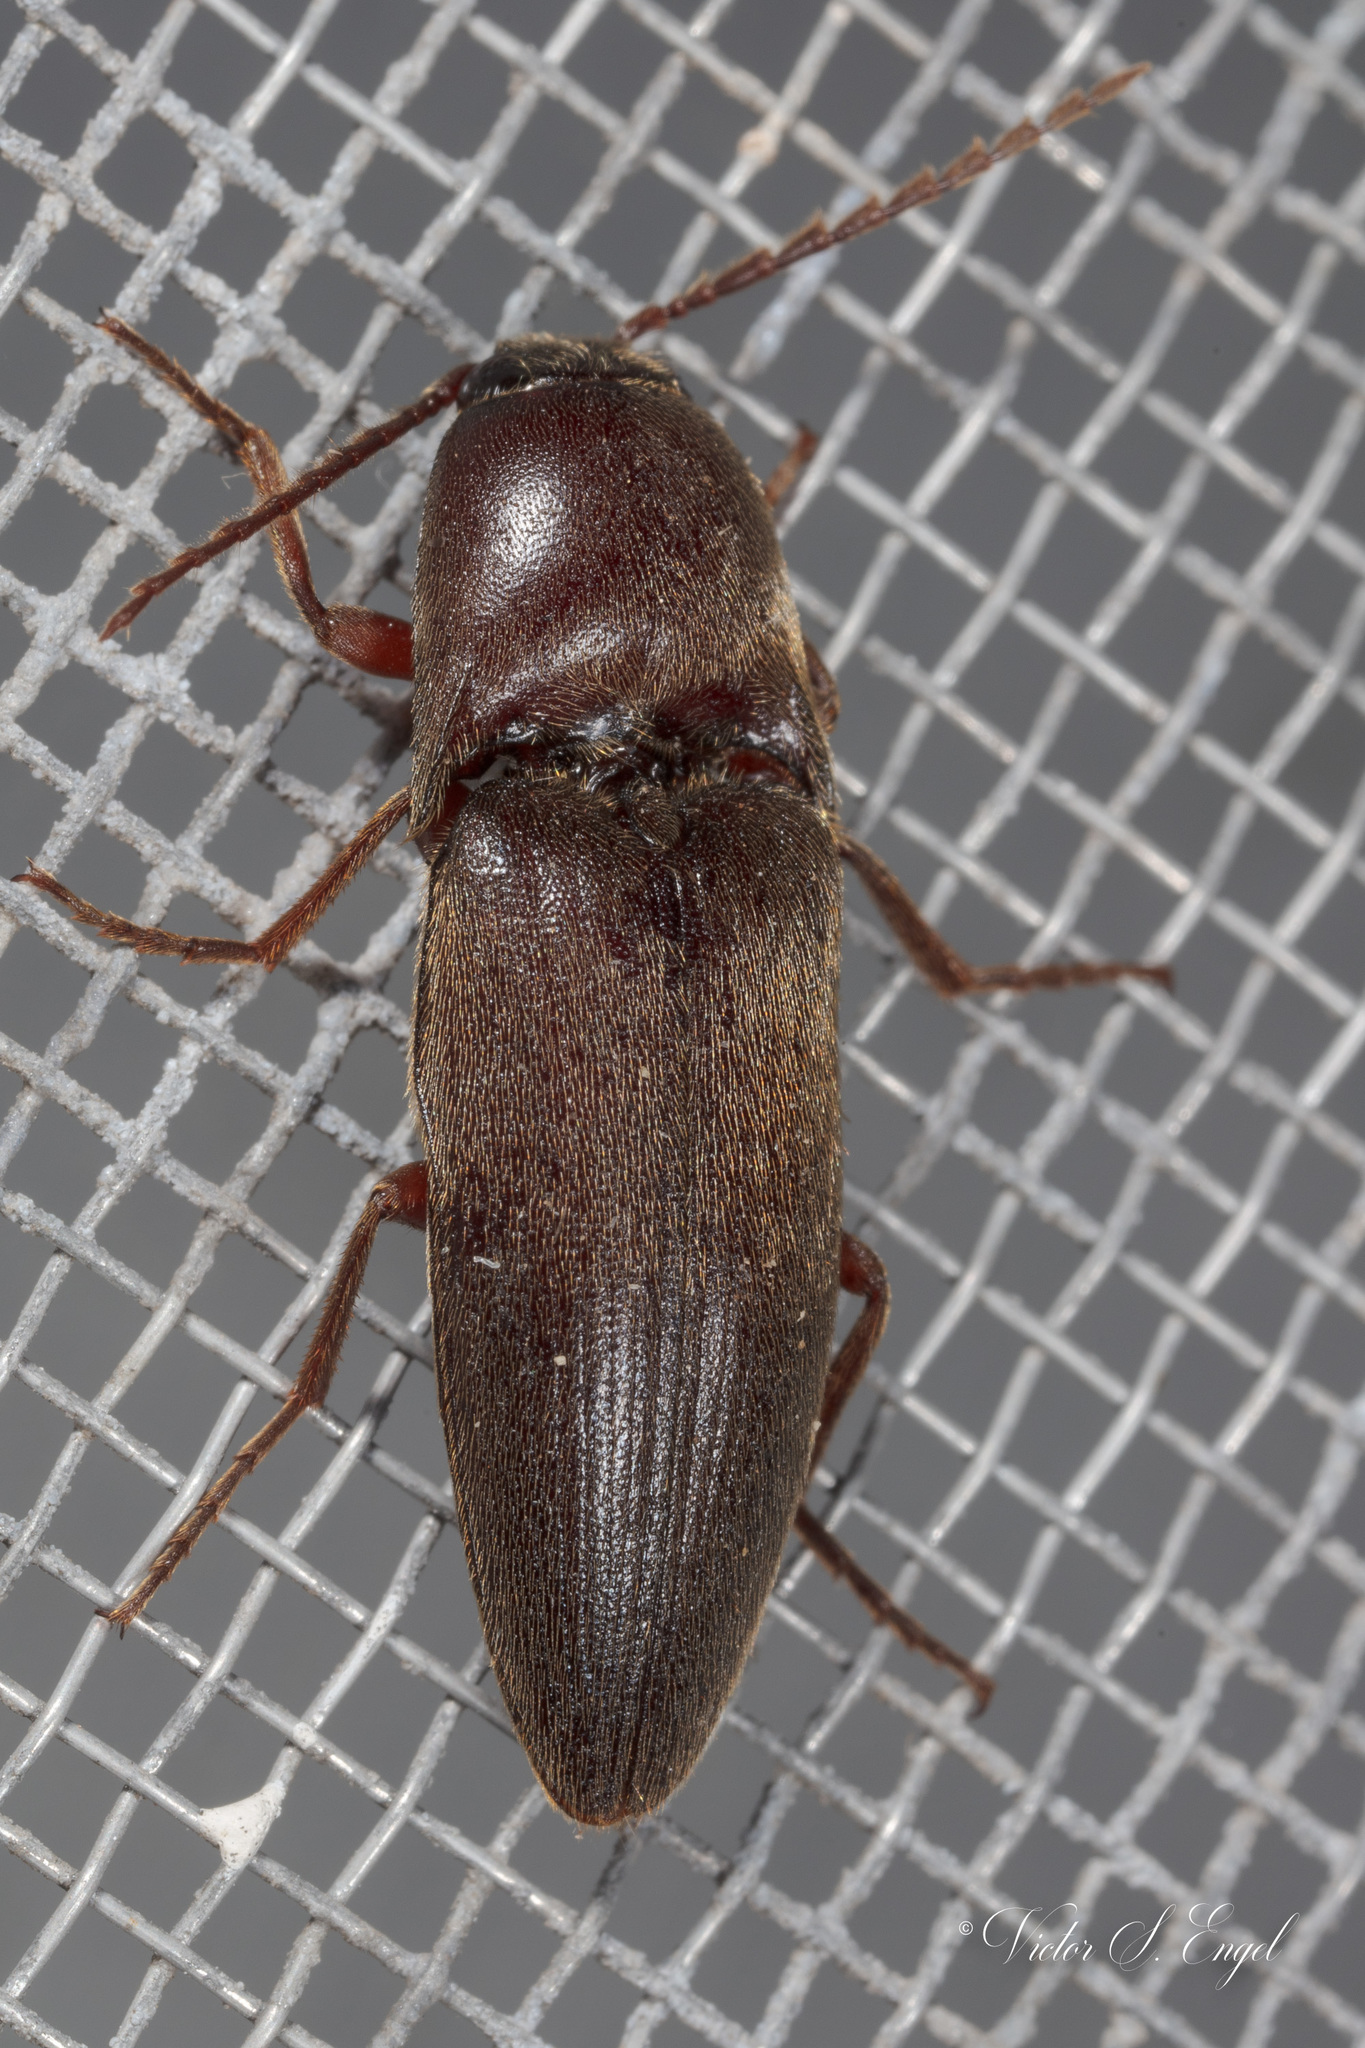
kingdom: Animalia
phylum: Arthropoda
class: Insecta
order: Coleoptera
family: Elateridae
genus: Diplostethus
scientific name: Diplostethus
